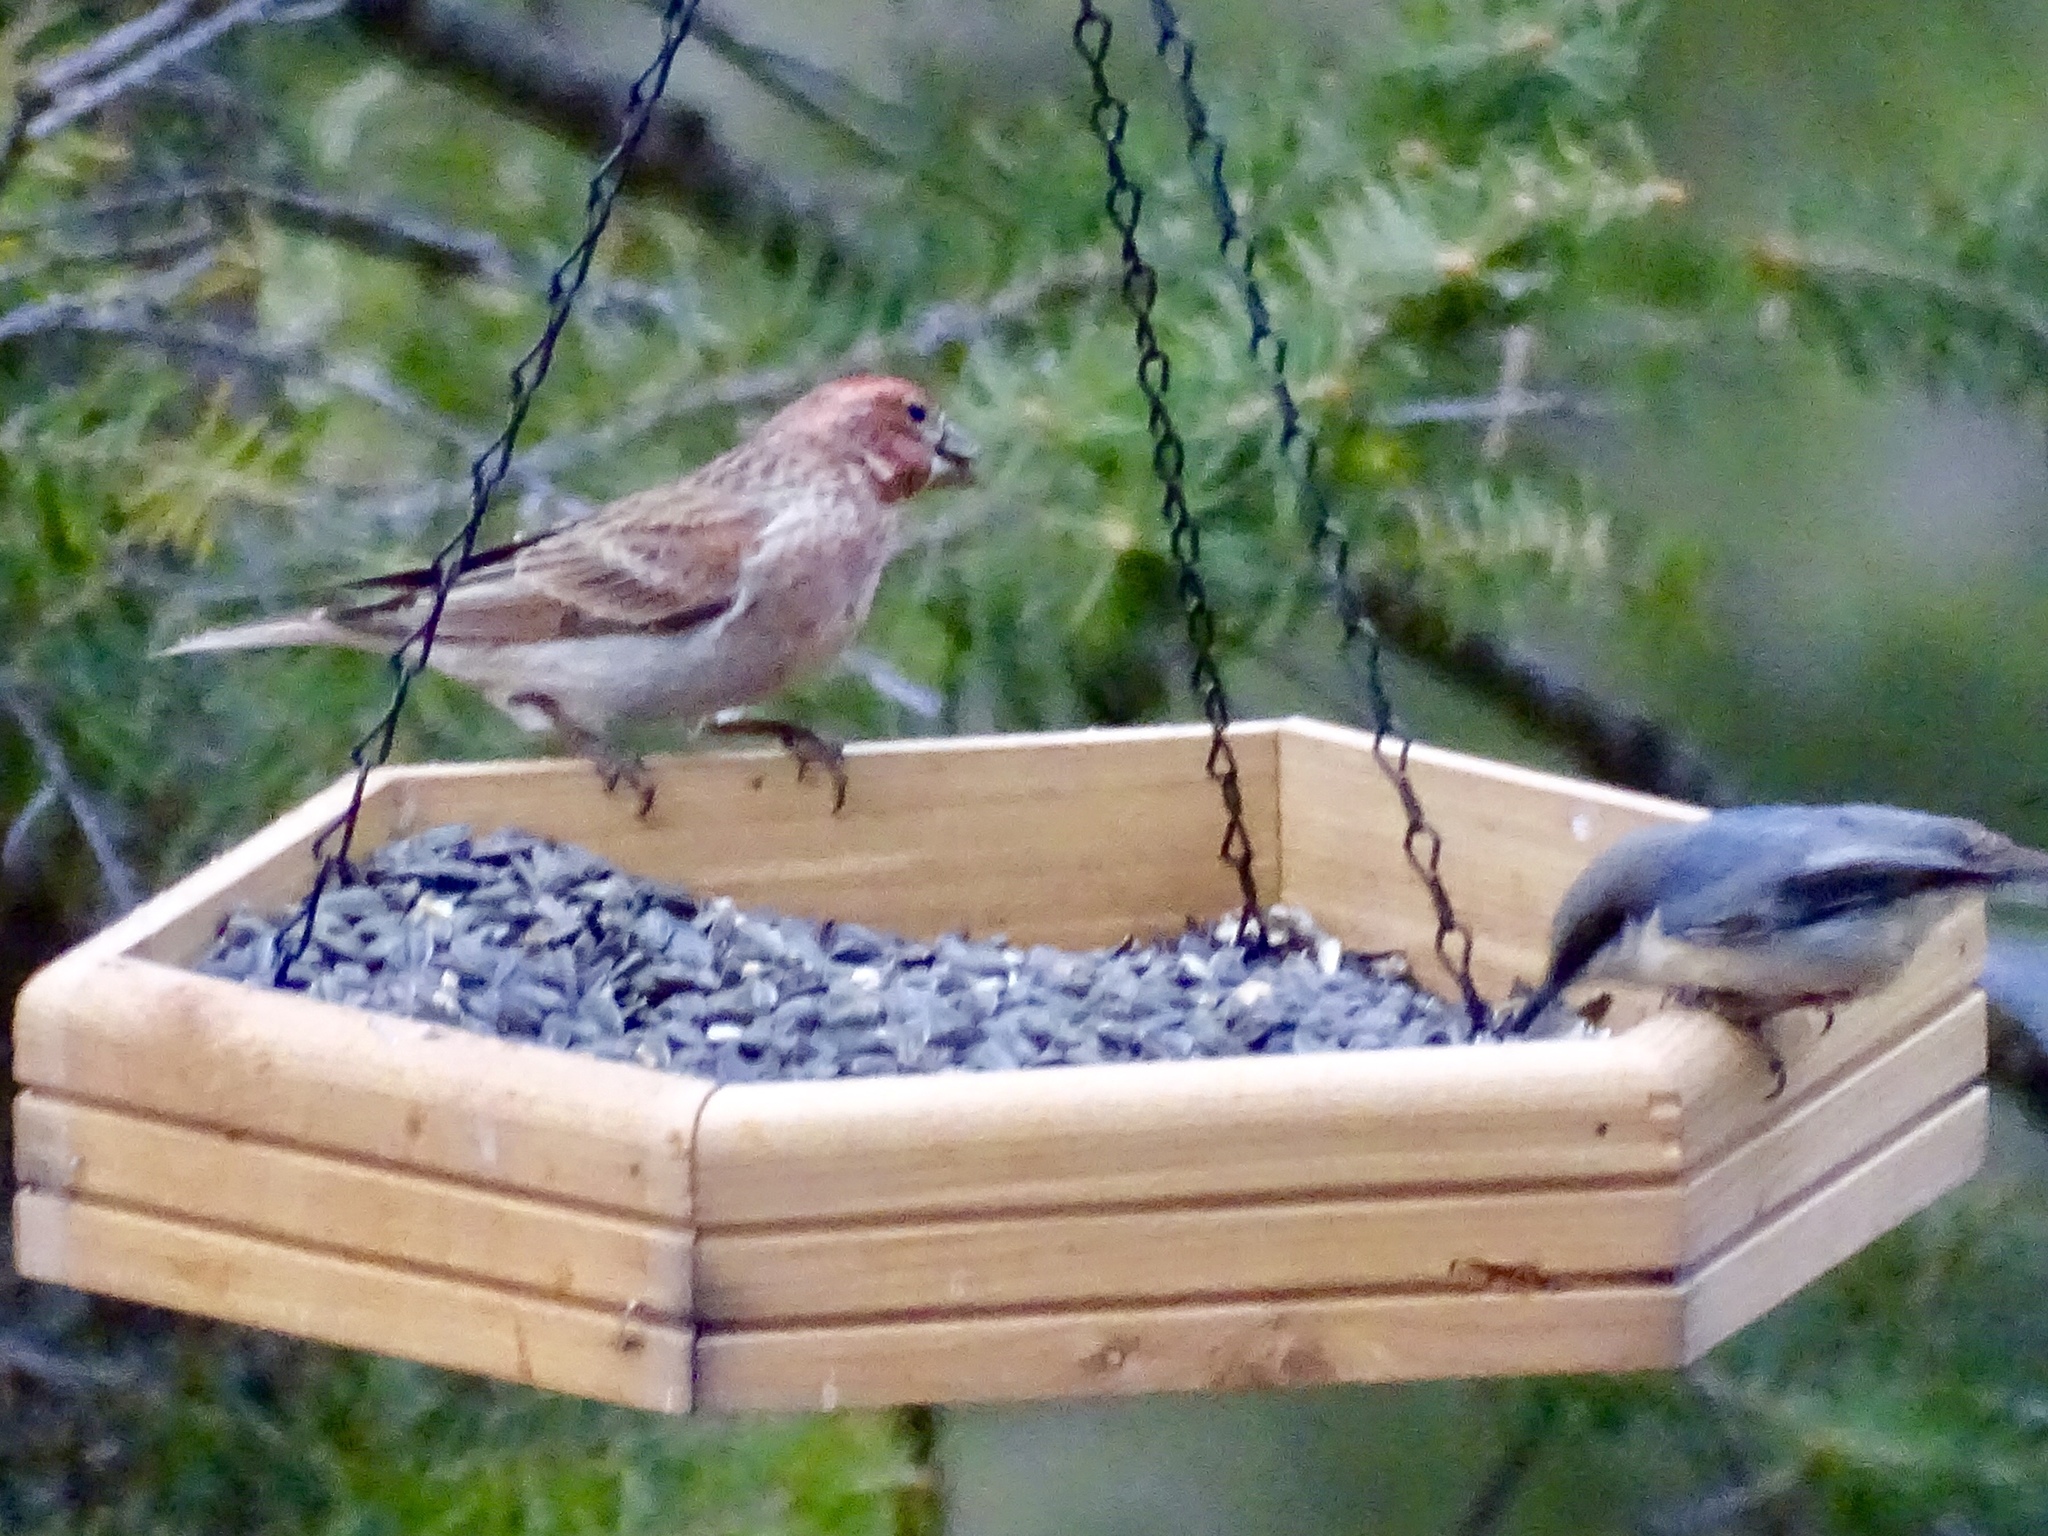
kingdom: Animalia
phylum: Chordata
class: Aves
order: Passeriformes
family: Fringillidae
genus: Haemorhous
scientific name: Haemorhous cassinii
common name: Cassin's finch
